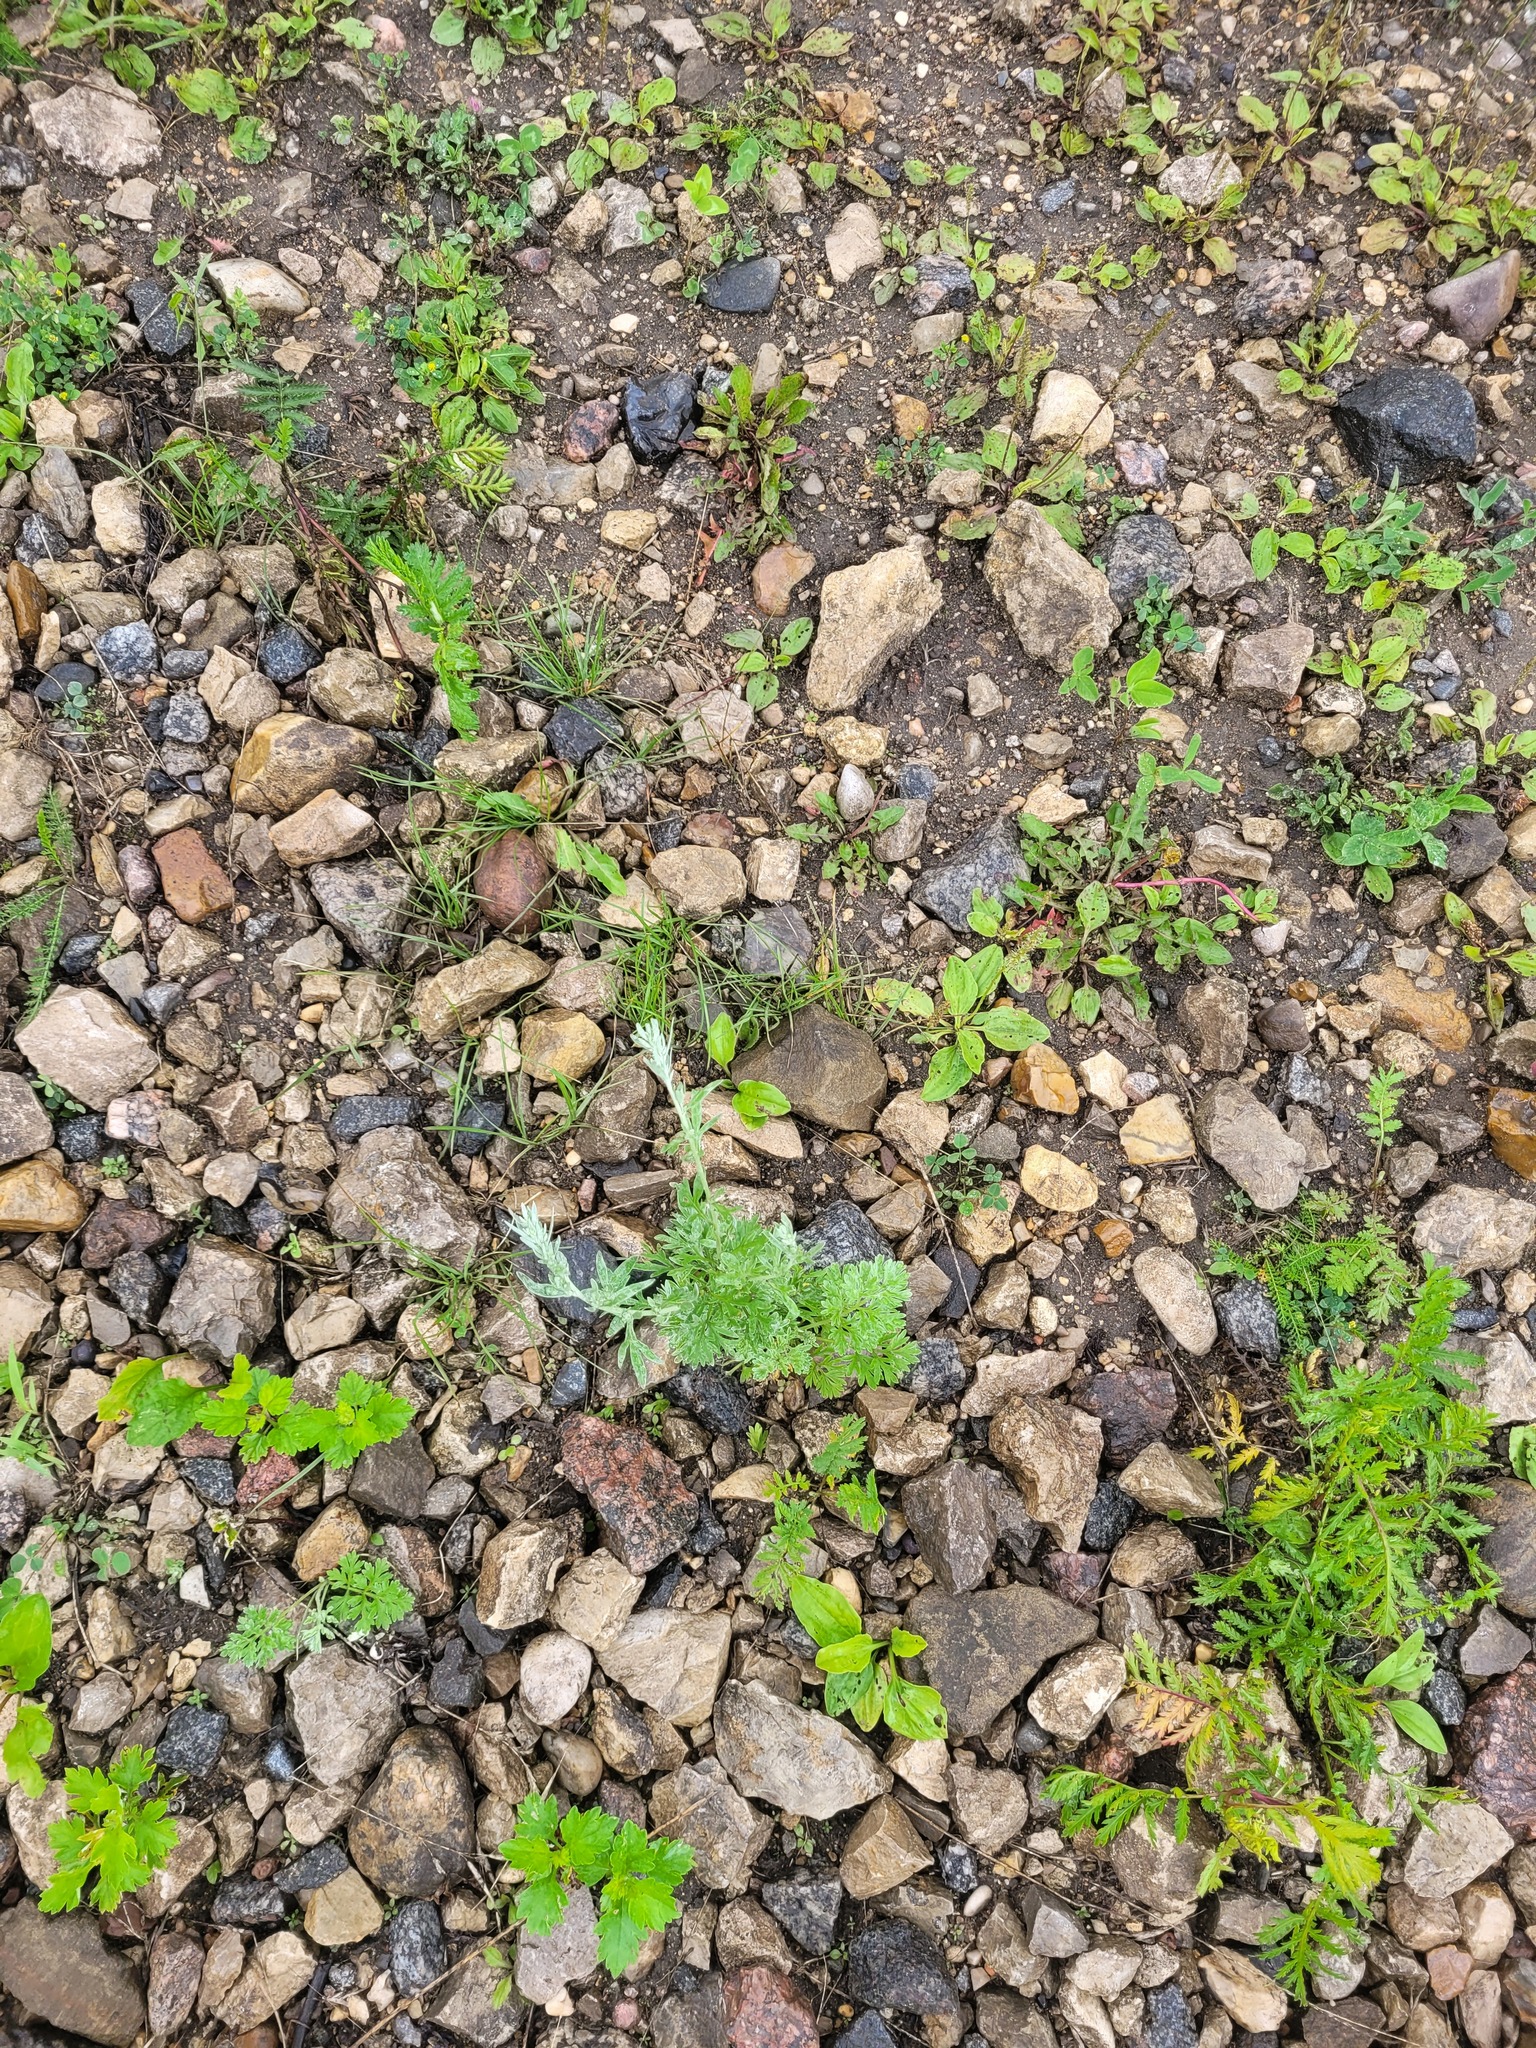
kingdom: Plantae
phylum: Tracheophyta
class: Magnoliopsida
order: Asterales
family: Asteraceae
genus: Artemisia
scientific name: Artemisia absinthium
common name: Wormwood
